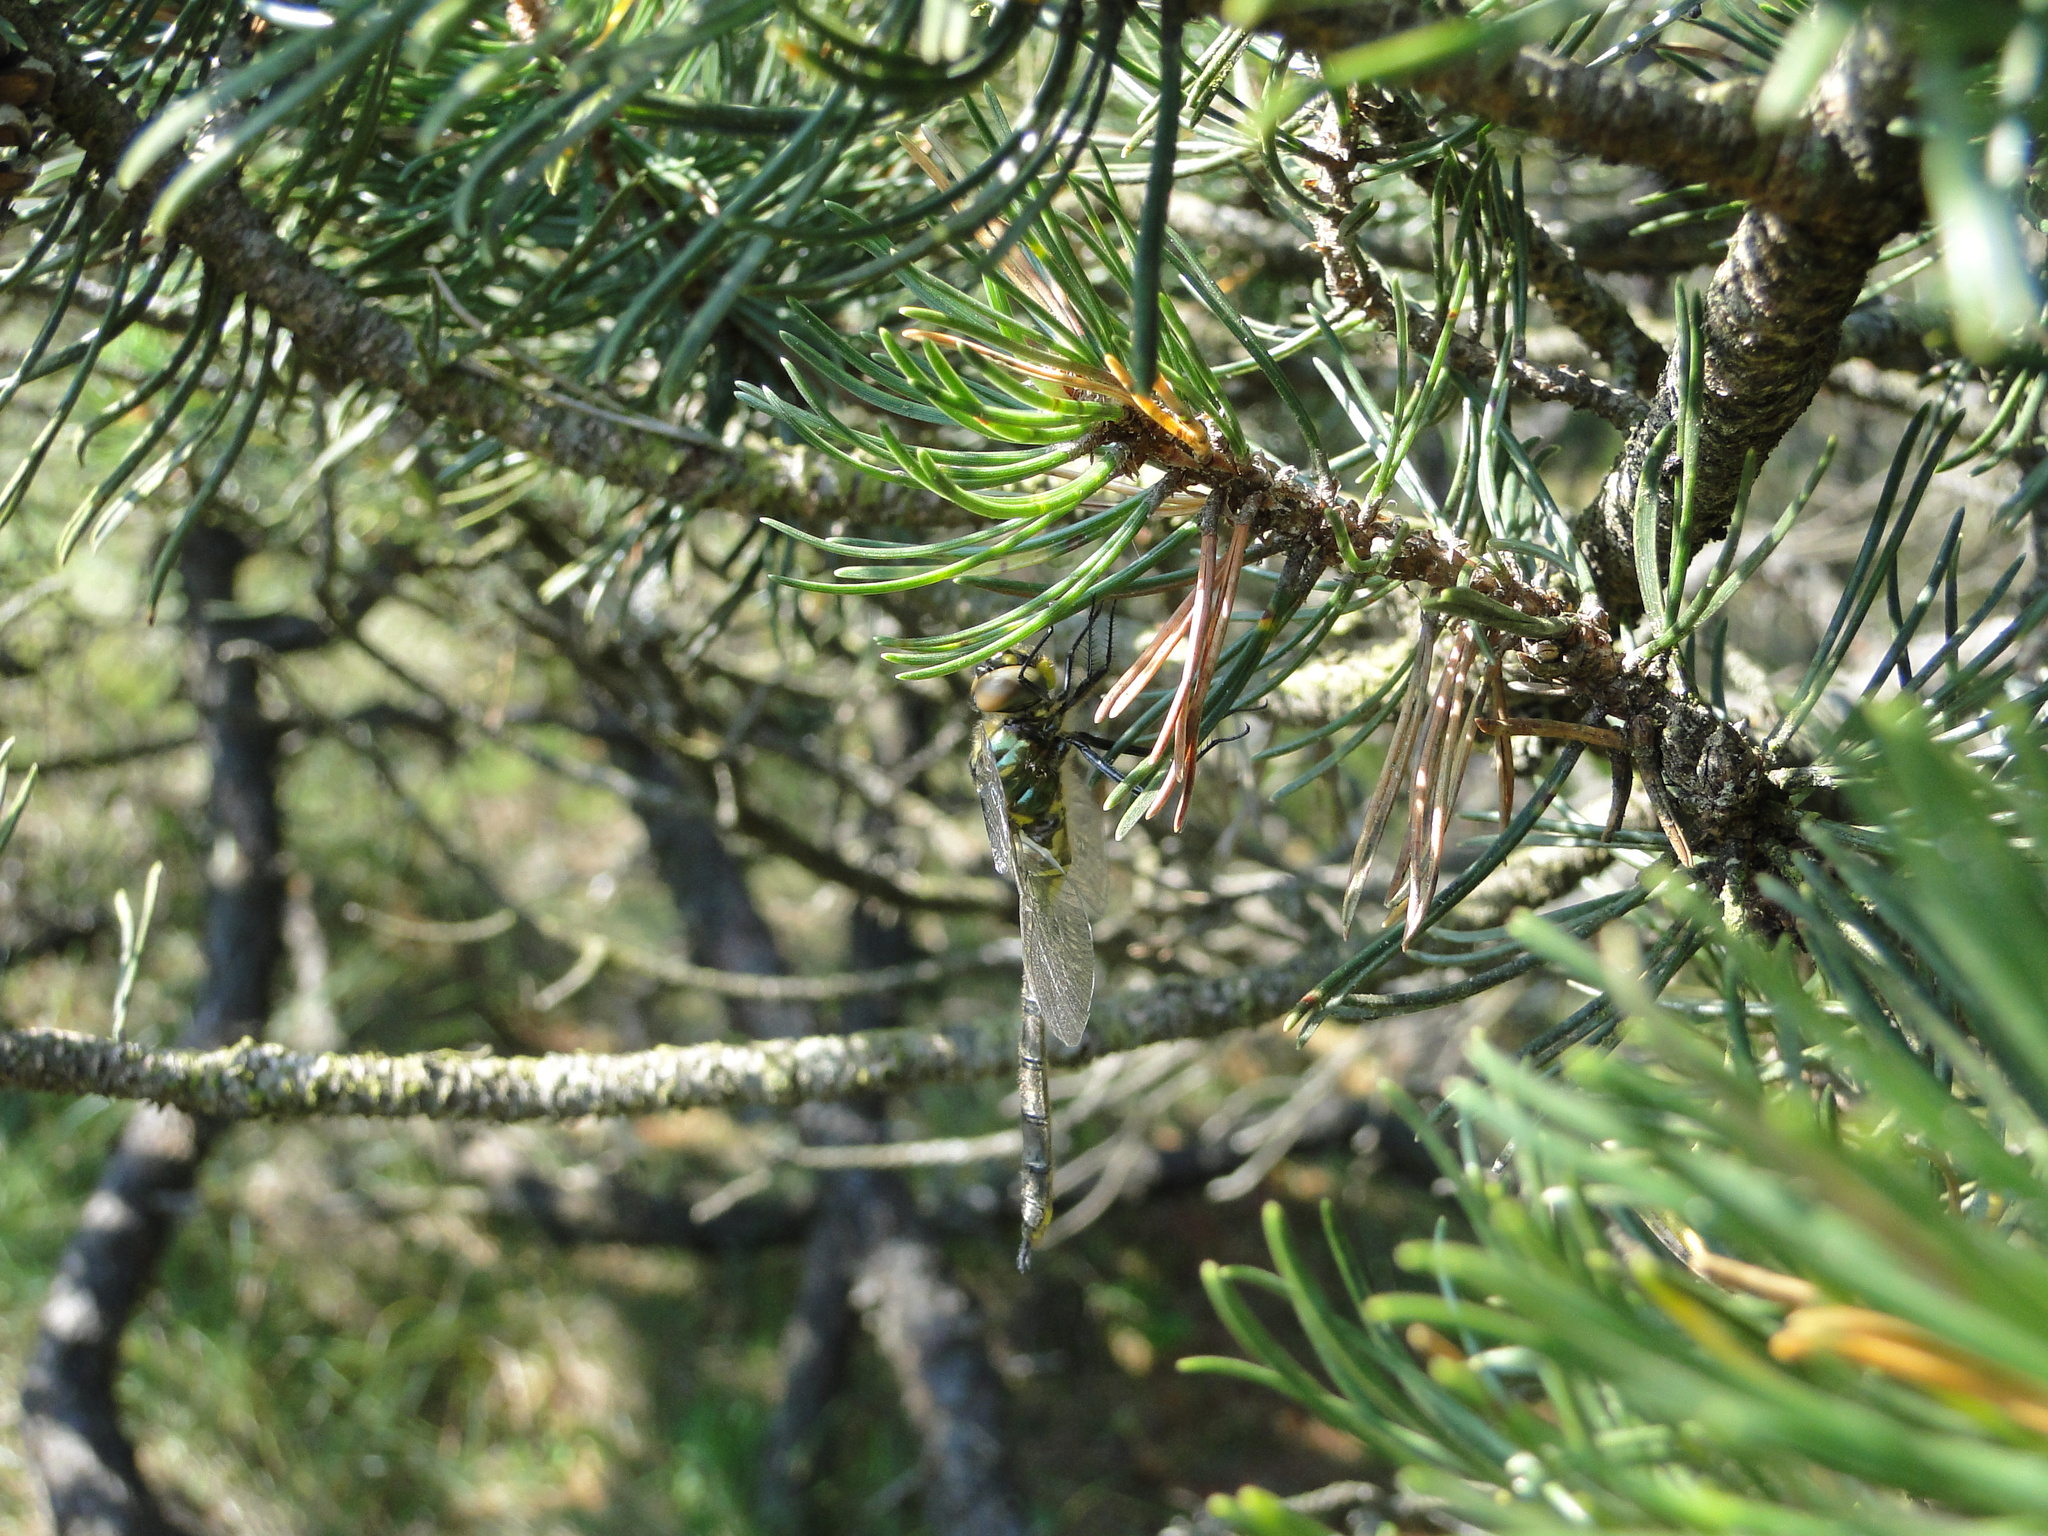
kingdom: Animalia
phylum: Arthropoda
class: Insecta
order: Odonata
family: Corduliidae
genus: Somatochlora
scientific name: Somatochlora arctica
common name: Northern emerald
